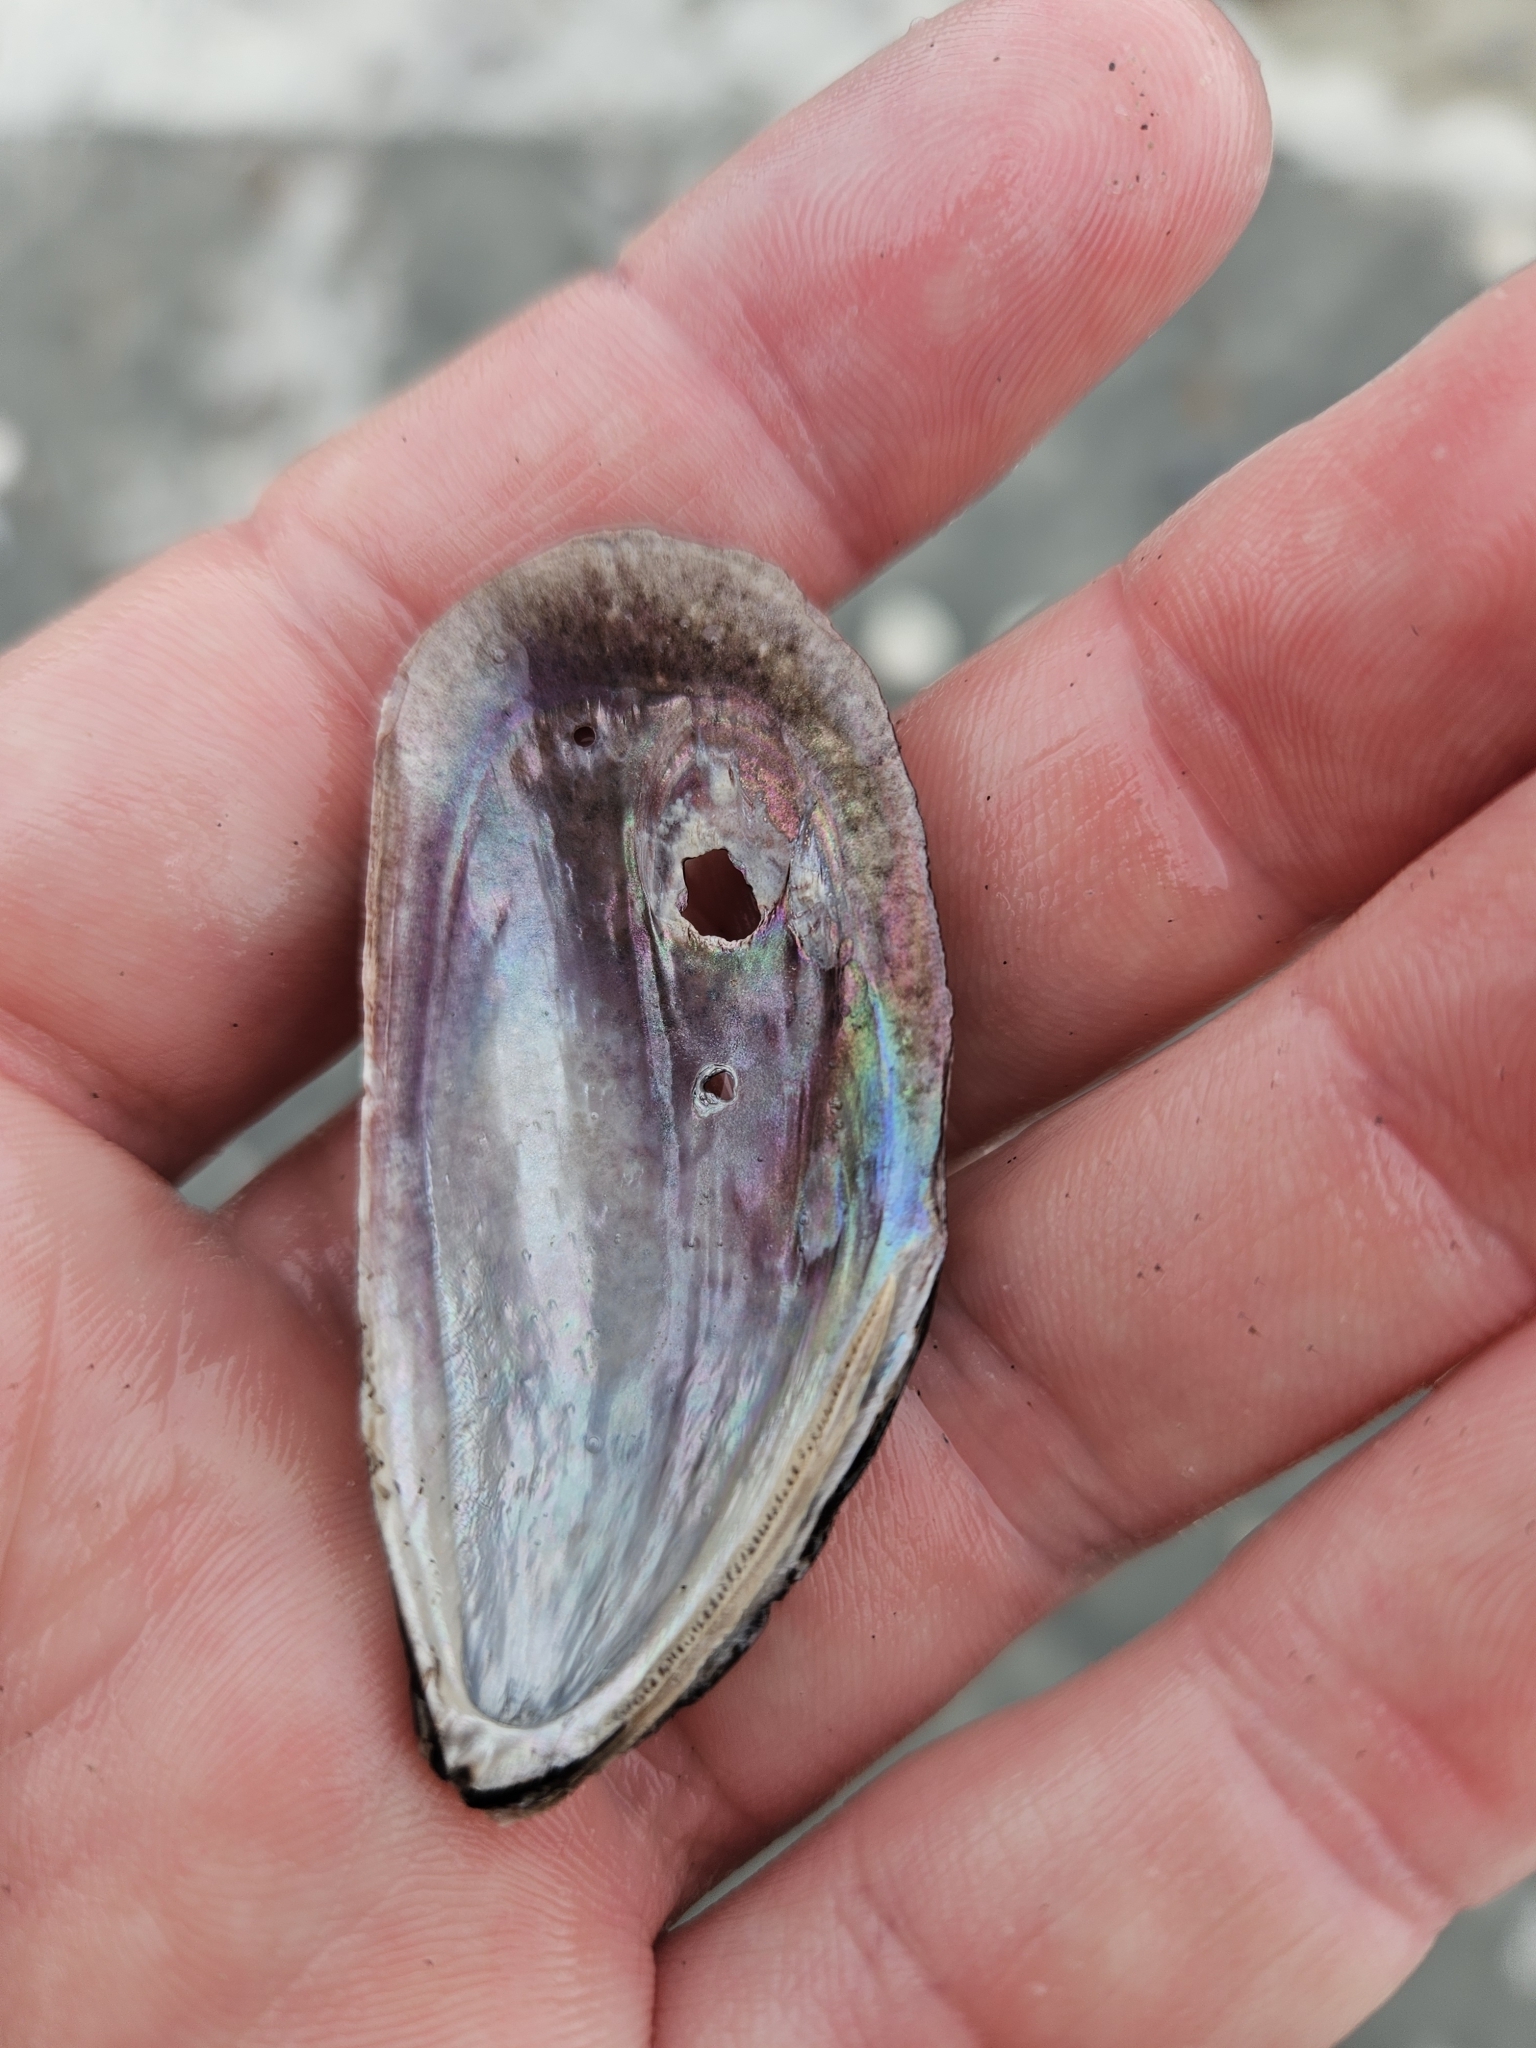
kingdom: Animalia
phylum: Mollusca
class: Bivalvia
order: Mytilida
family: Mytilidae
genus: Perna
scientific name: Perna canaliculus
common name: New zealand greenshelltm
